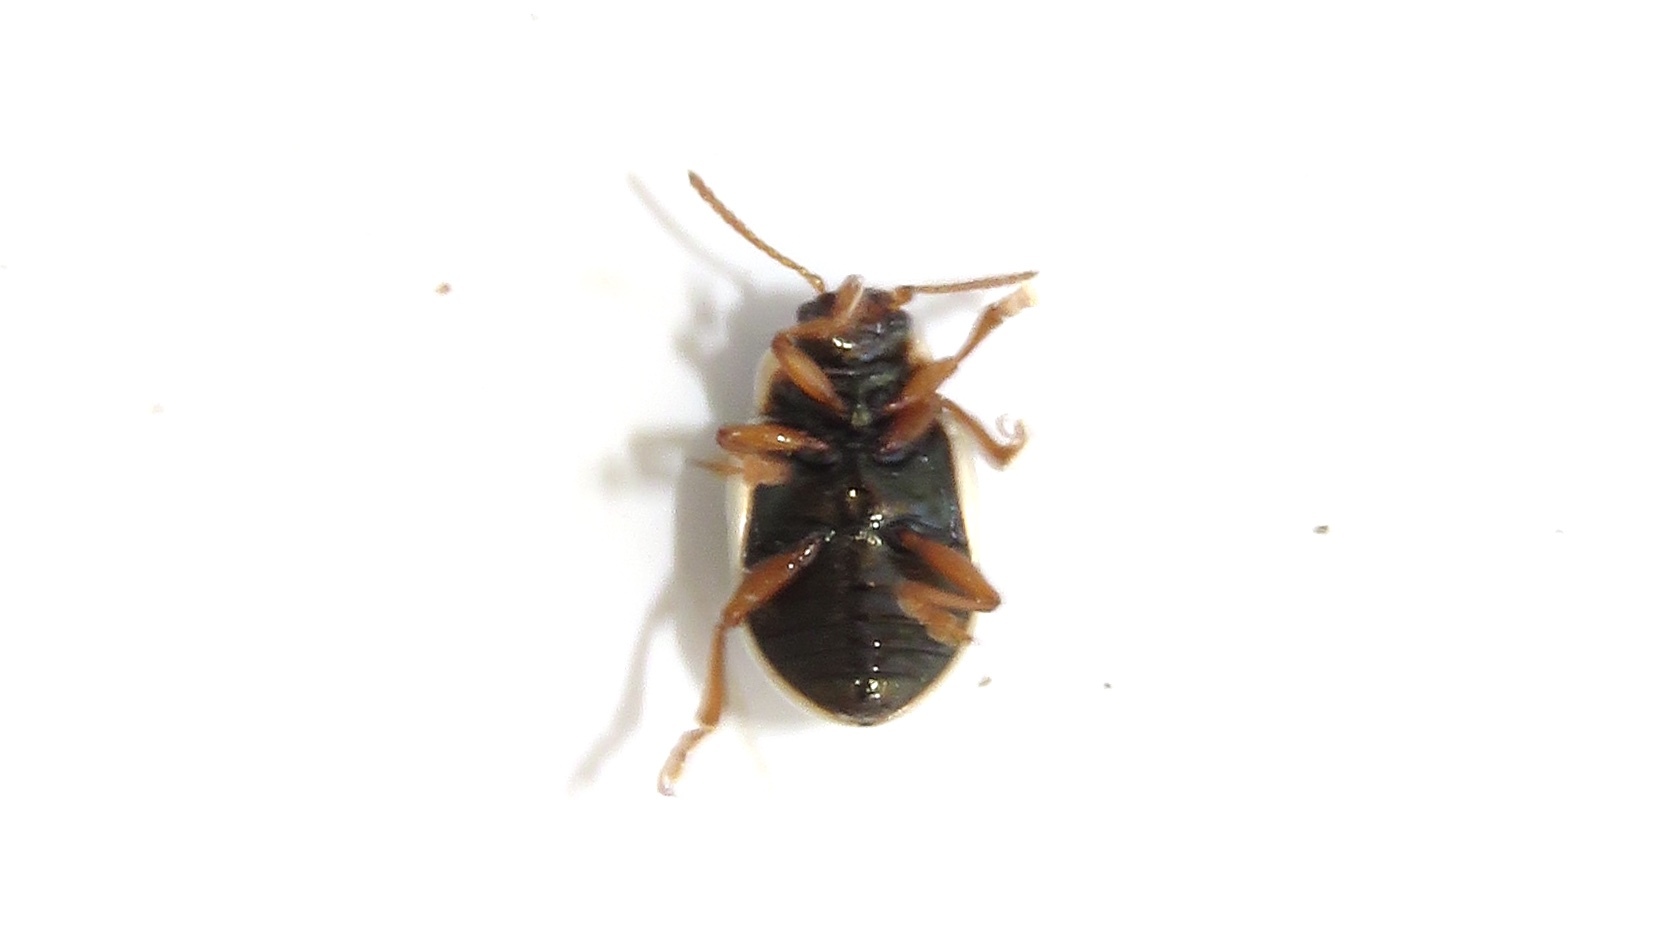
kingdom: Animalia
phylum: Arthropoda
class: Insecta
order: Coleoptera
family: Chrysomelidae
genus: Calligrapha
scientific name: Calligrapha multipunctata
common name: Common willow calligrapher beetle
